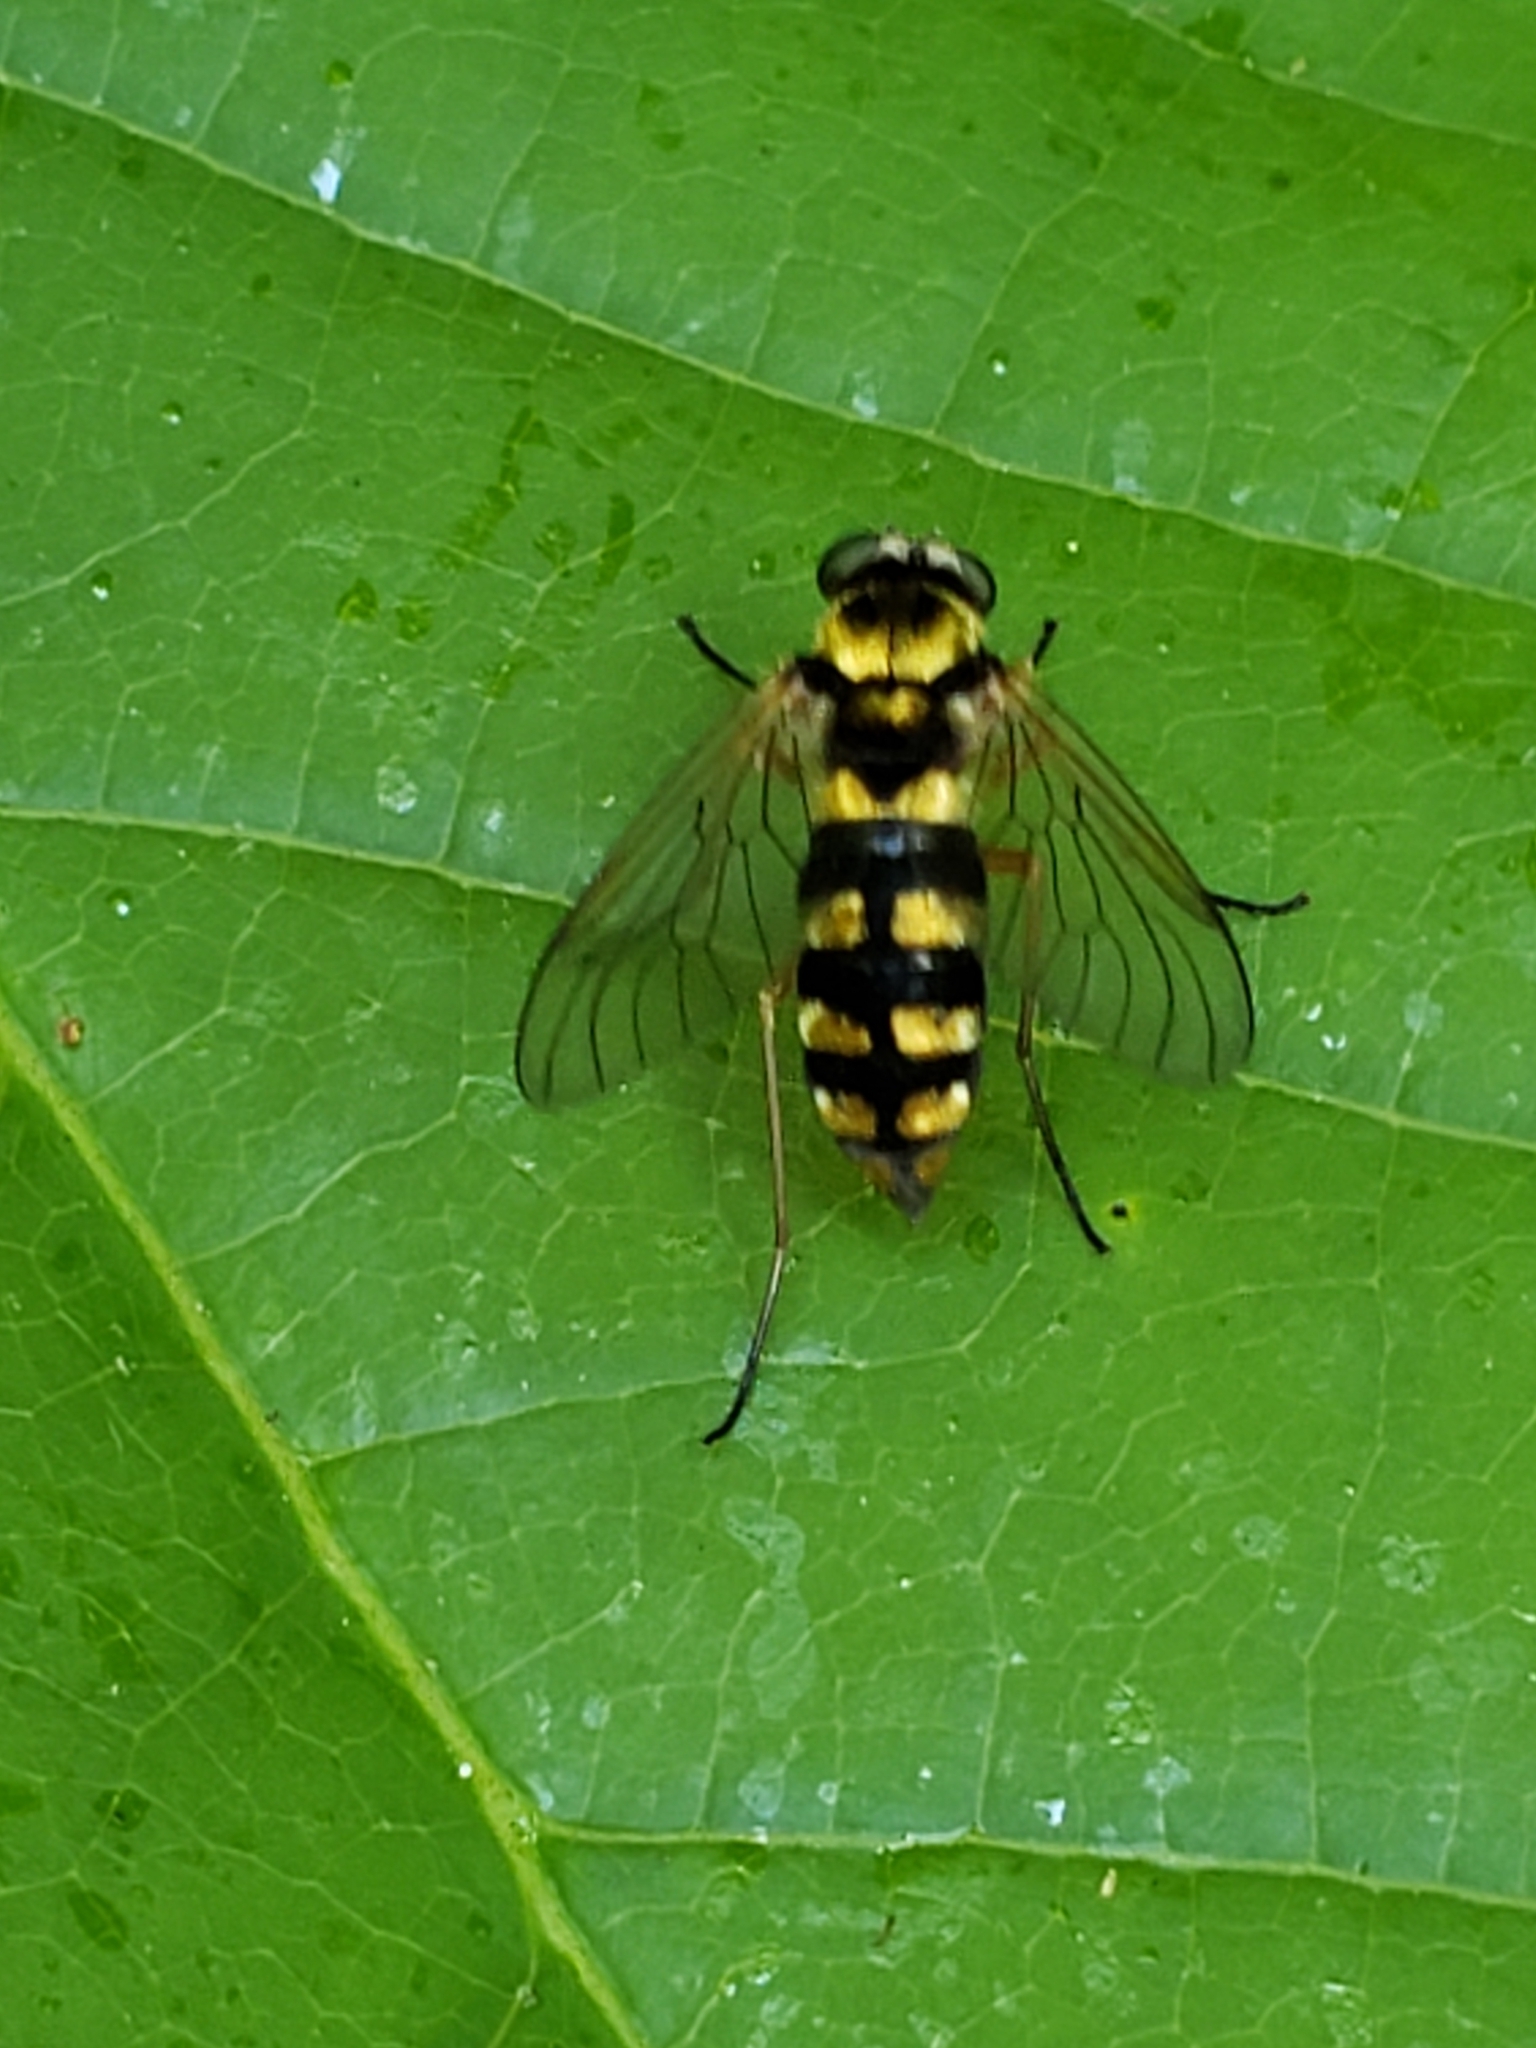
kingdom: Animalia
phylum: Arthropoda
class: Insecta
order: Diptera
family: Rhagionidae
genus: Chrysopilus
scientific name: Chrysopilus ornatus
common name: Ornate snipe fly
